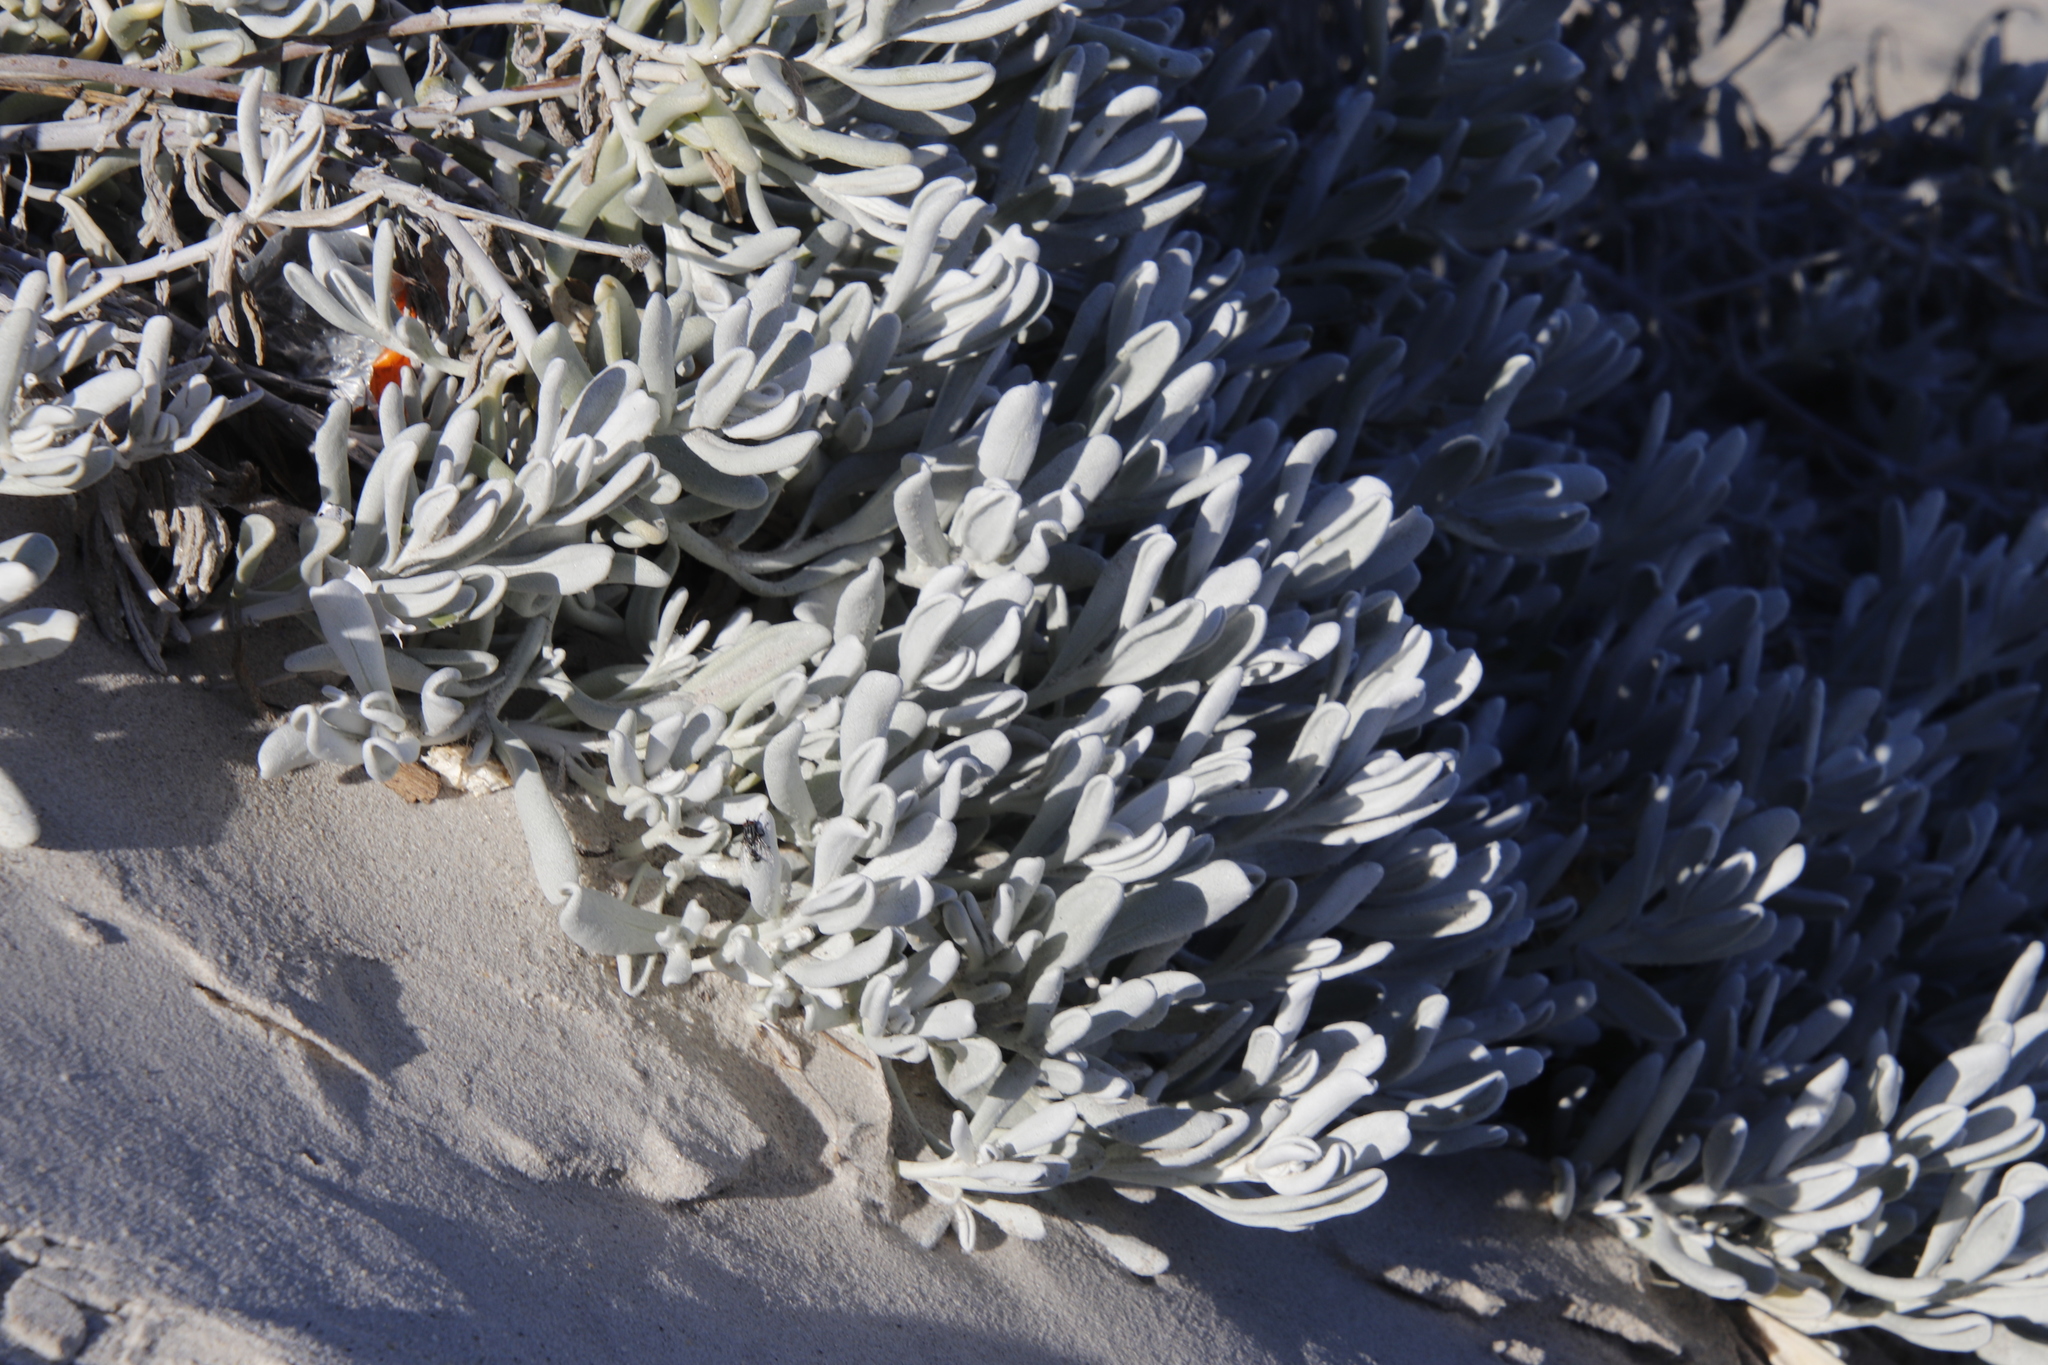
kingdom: Plantae
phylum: Tracheophyta
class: Magnoliopsida
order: Asterales
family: Asteraceae
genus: Didelta
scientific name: Didelta carnosa
